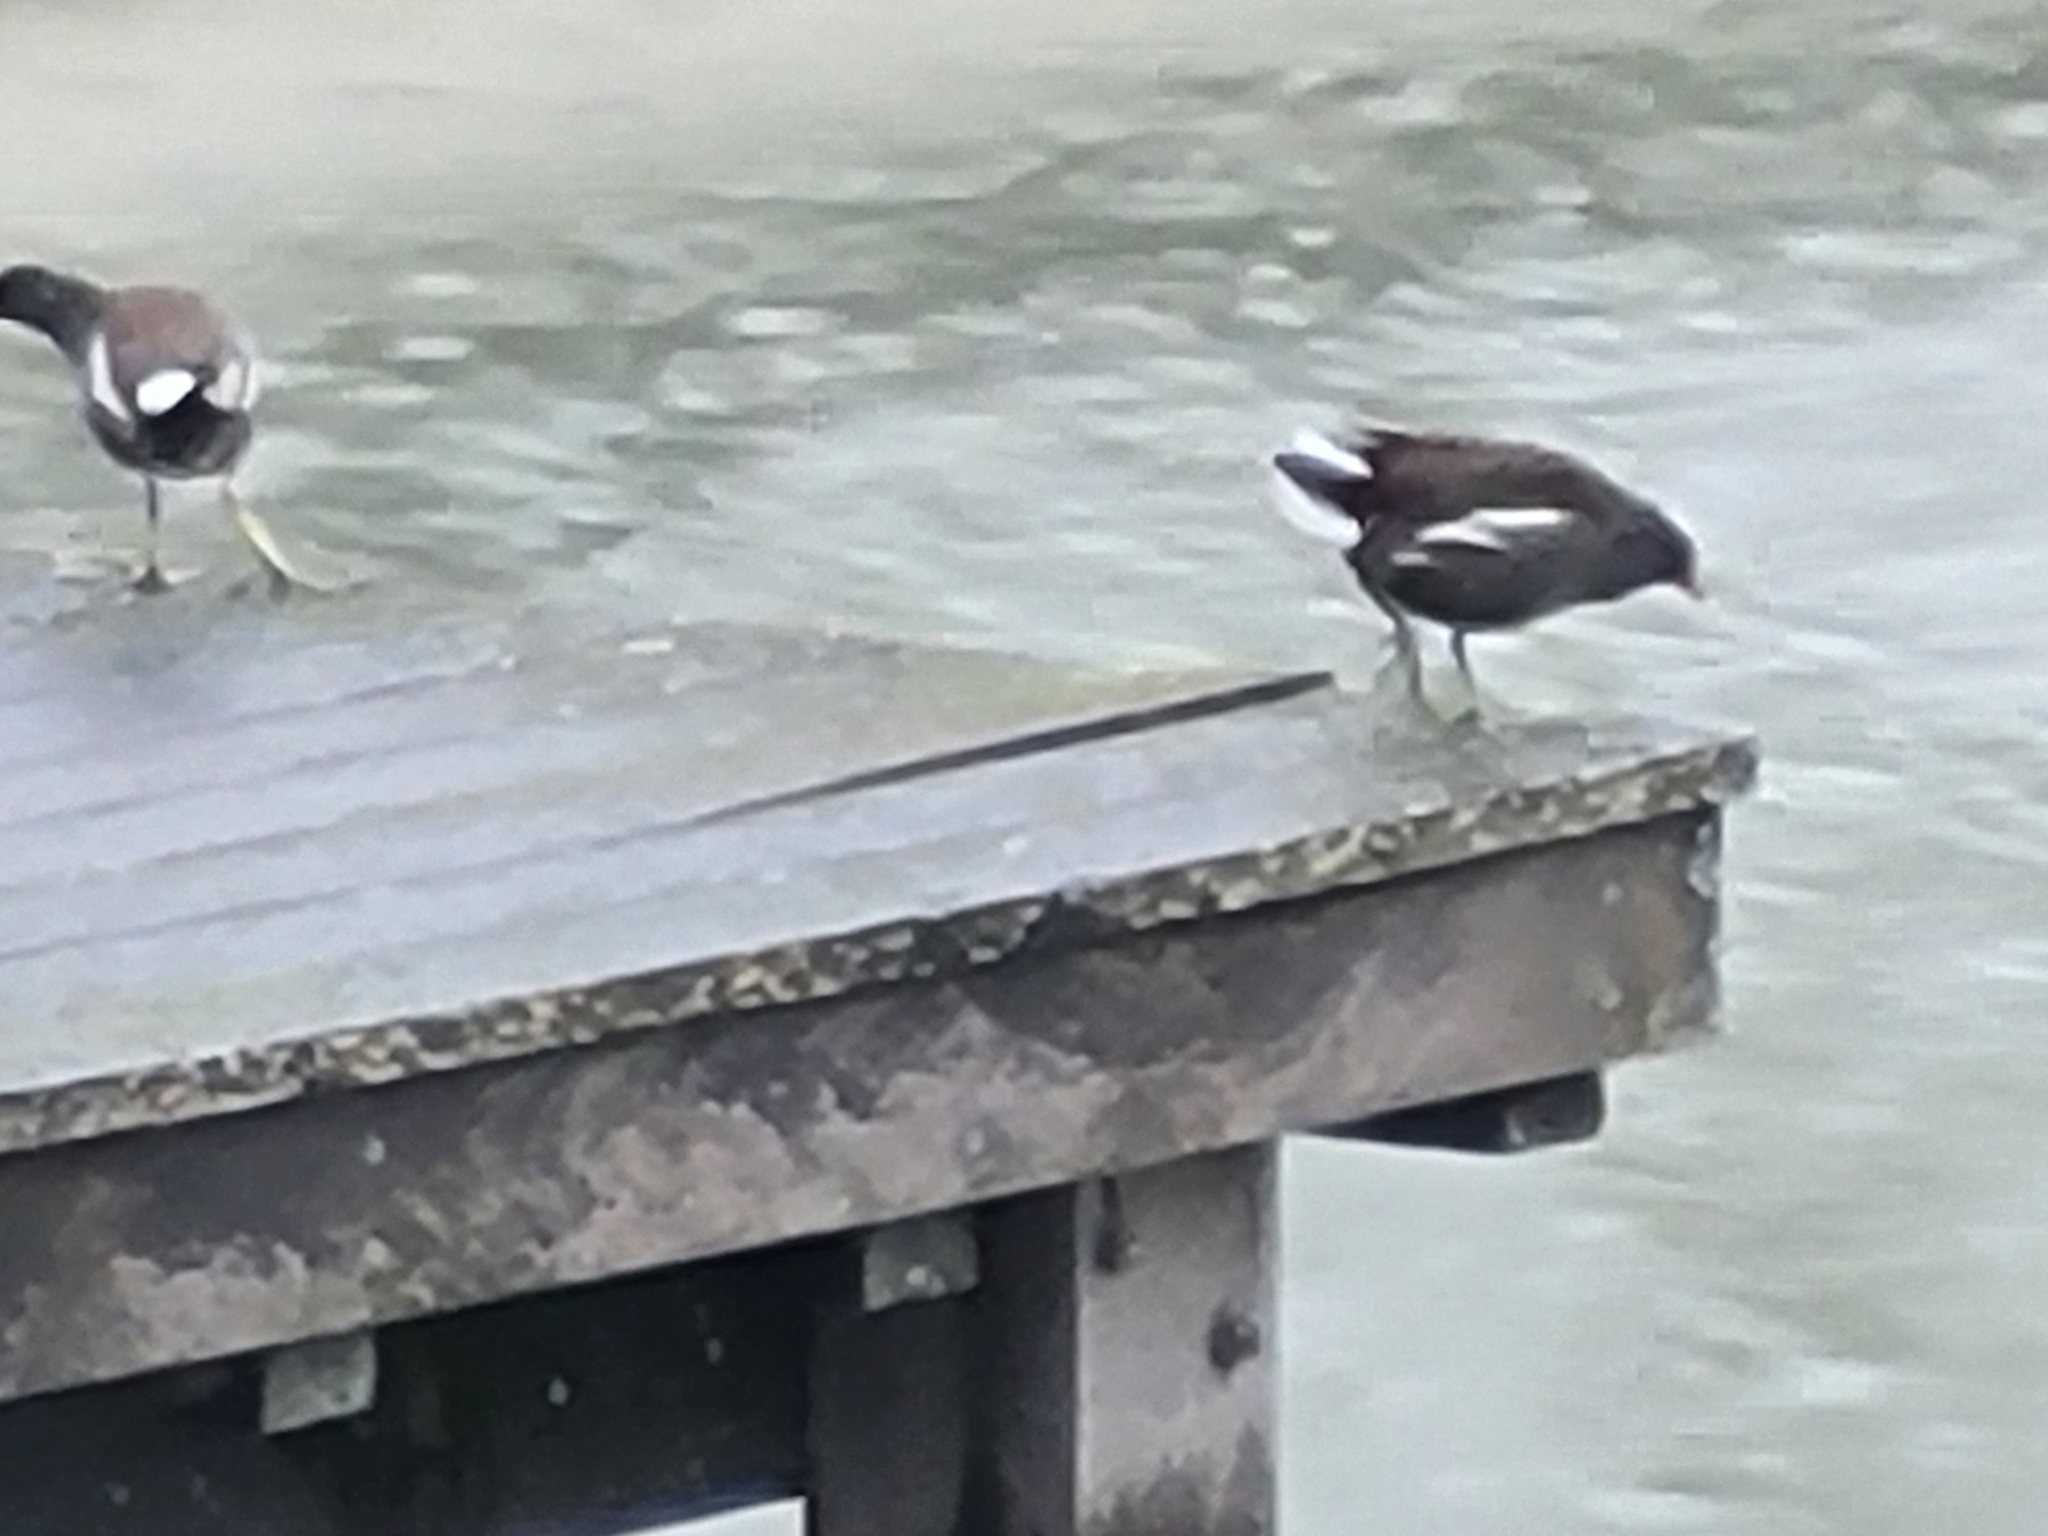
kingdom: Animalia
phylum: Chordata
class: Aves
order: Gruiformes
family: Rallidae
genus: Gallinula
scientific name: Gallinula chloropus
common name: Common moorhen
